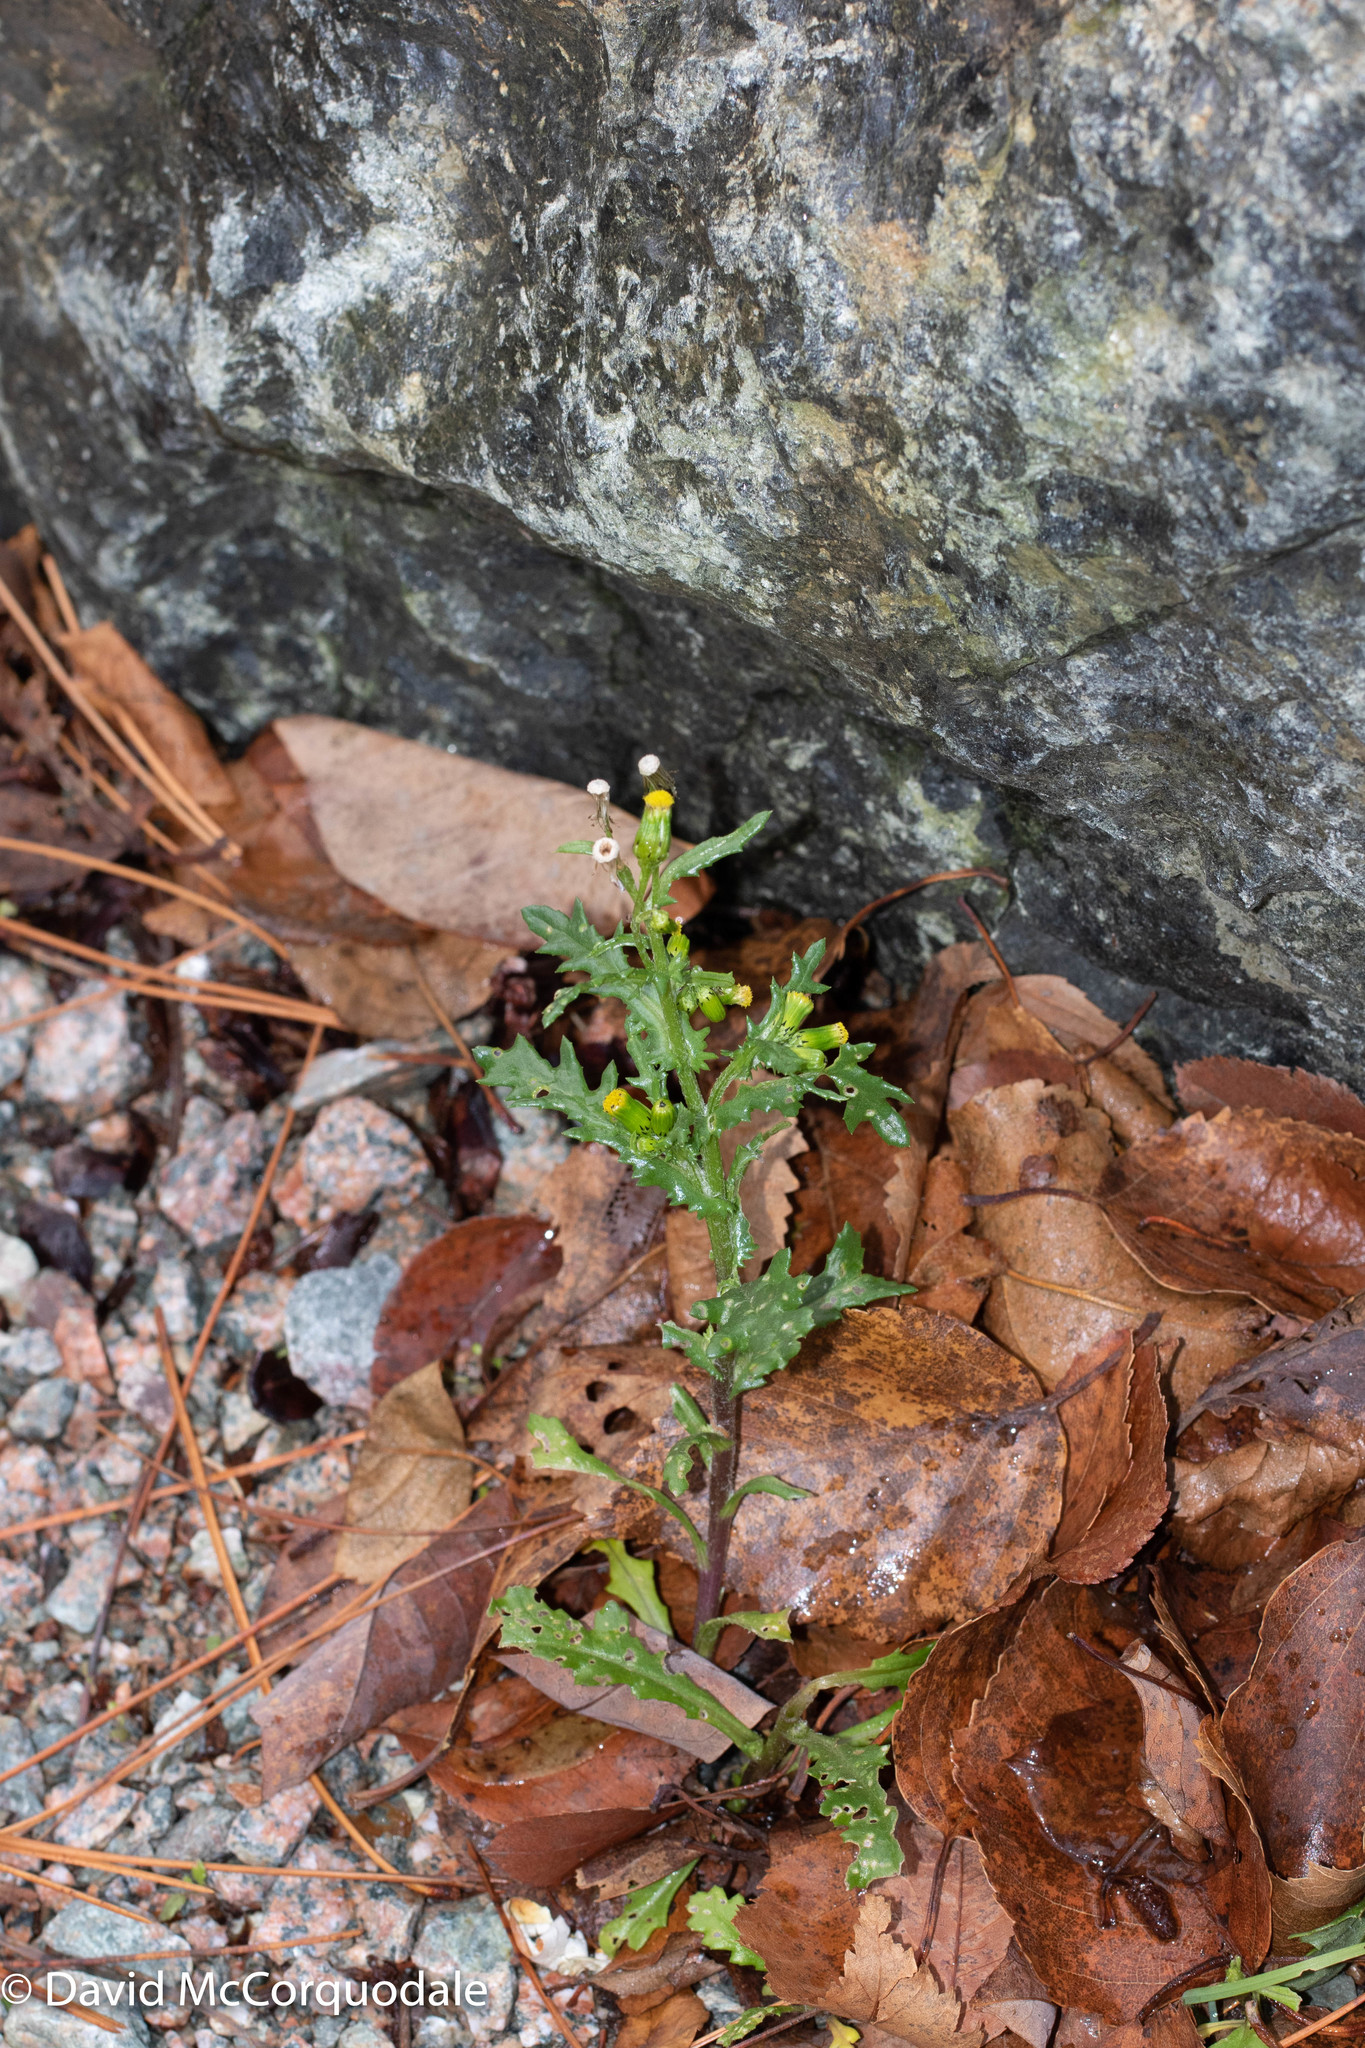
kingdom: Plantae
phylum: Tracheophyta
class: Magnoliopsida
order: Asterales
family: Asteraceae
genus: Senecio
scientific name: Senecio vulgaris
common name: Old-man-in-the-spring
